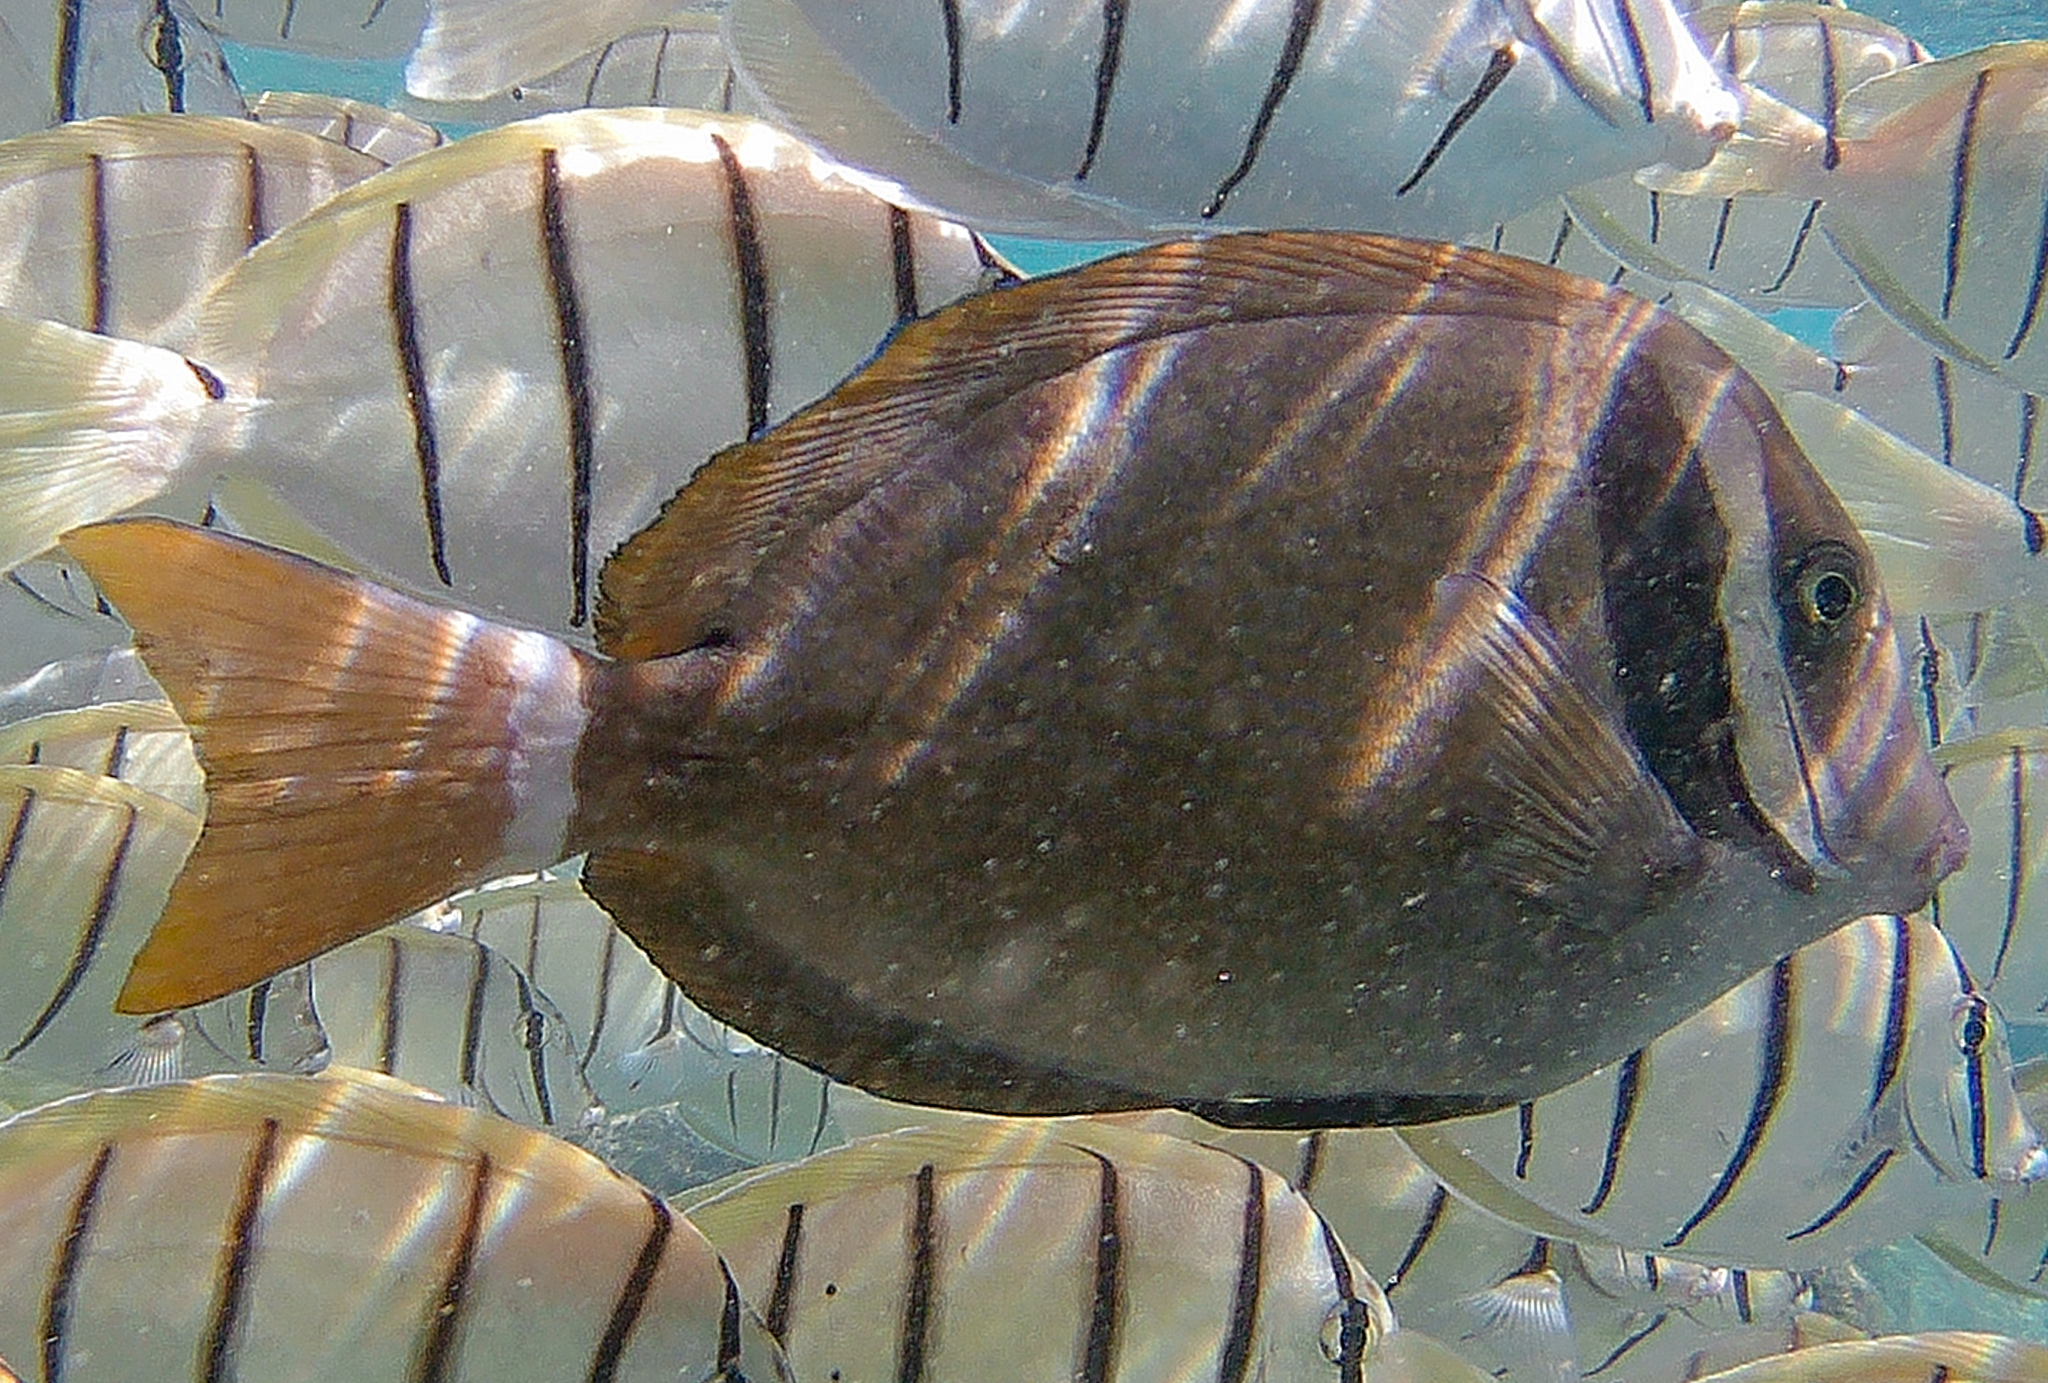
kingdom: Animalia
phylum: Chordata
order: Perciformes
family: Acanthuridae
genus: Acanthurus
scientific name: Acanthurus leucopareius
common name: Head-band surgeonfish
